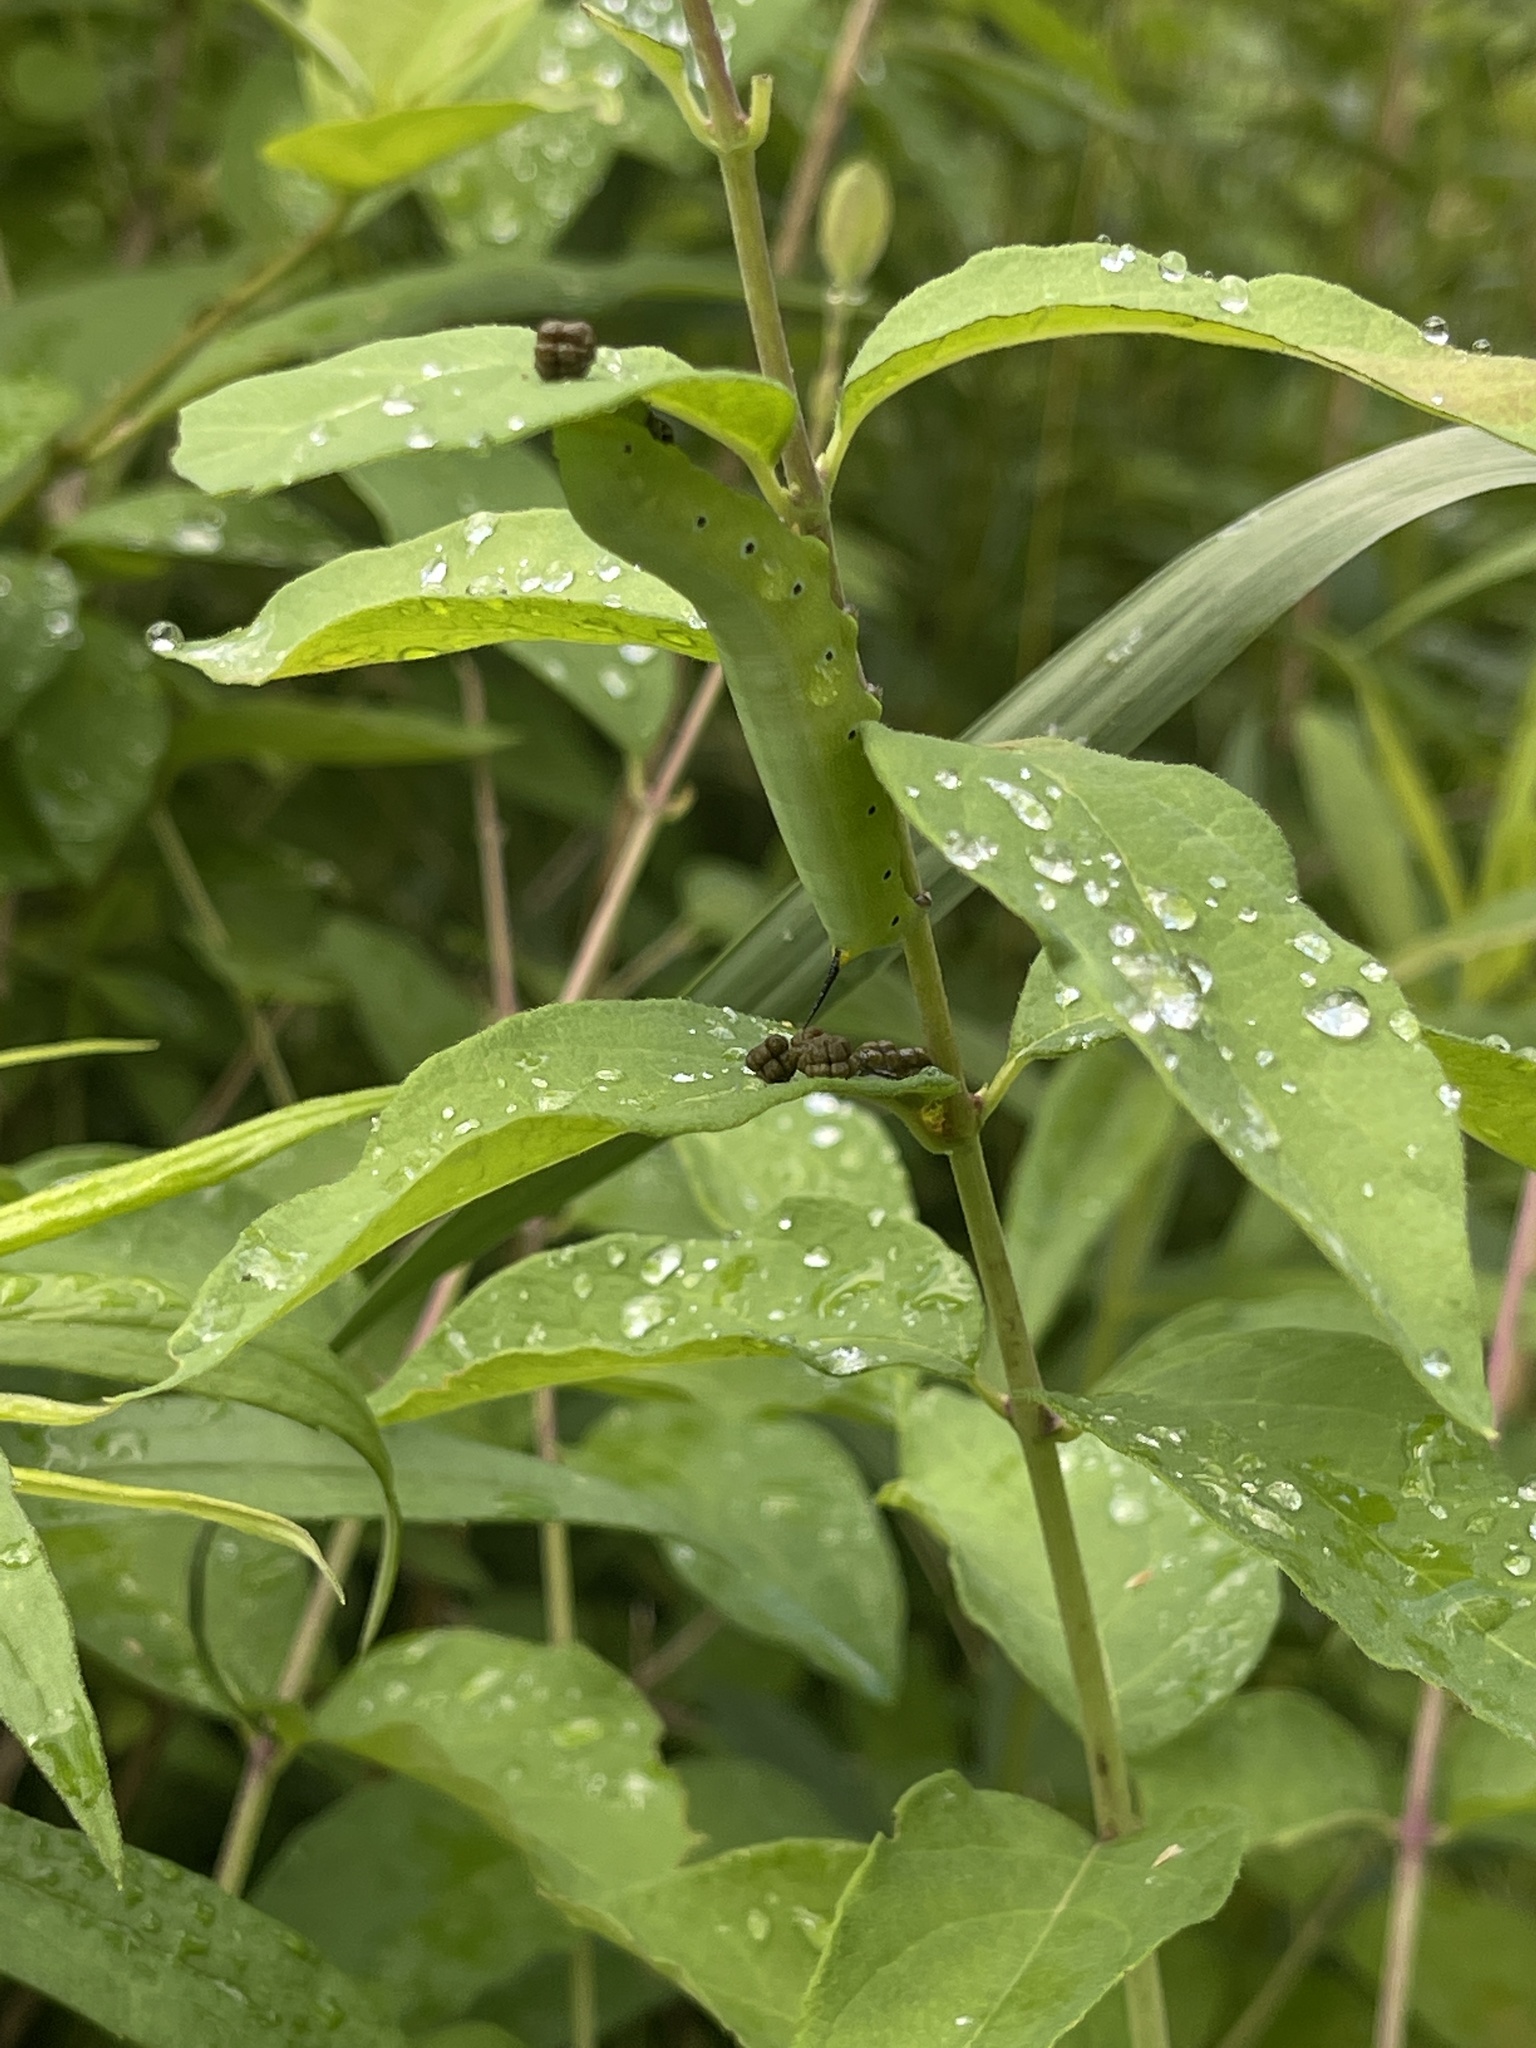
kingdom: Animalia
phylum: Arthropoda
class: Insecta
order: Lepidoptera
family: Sphingidae
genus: Hemaris
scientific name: Hemaris diffinis
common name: Bumblebee moth
